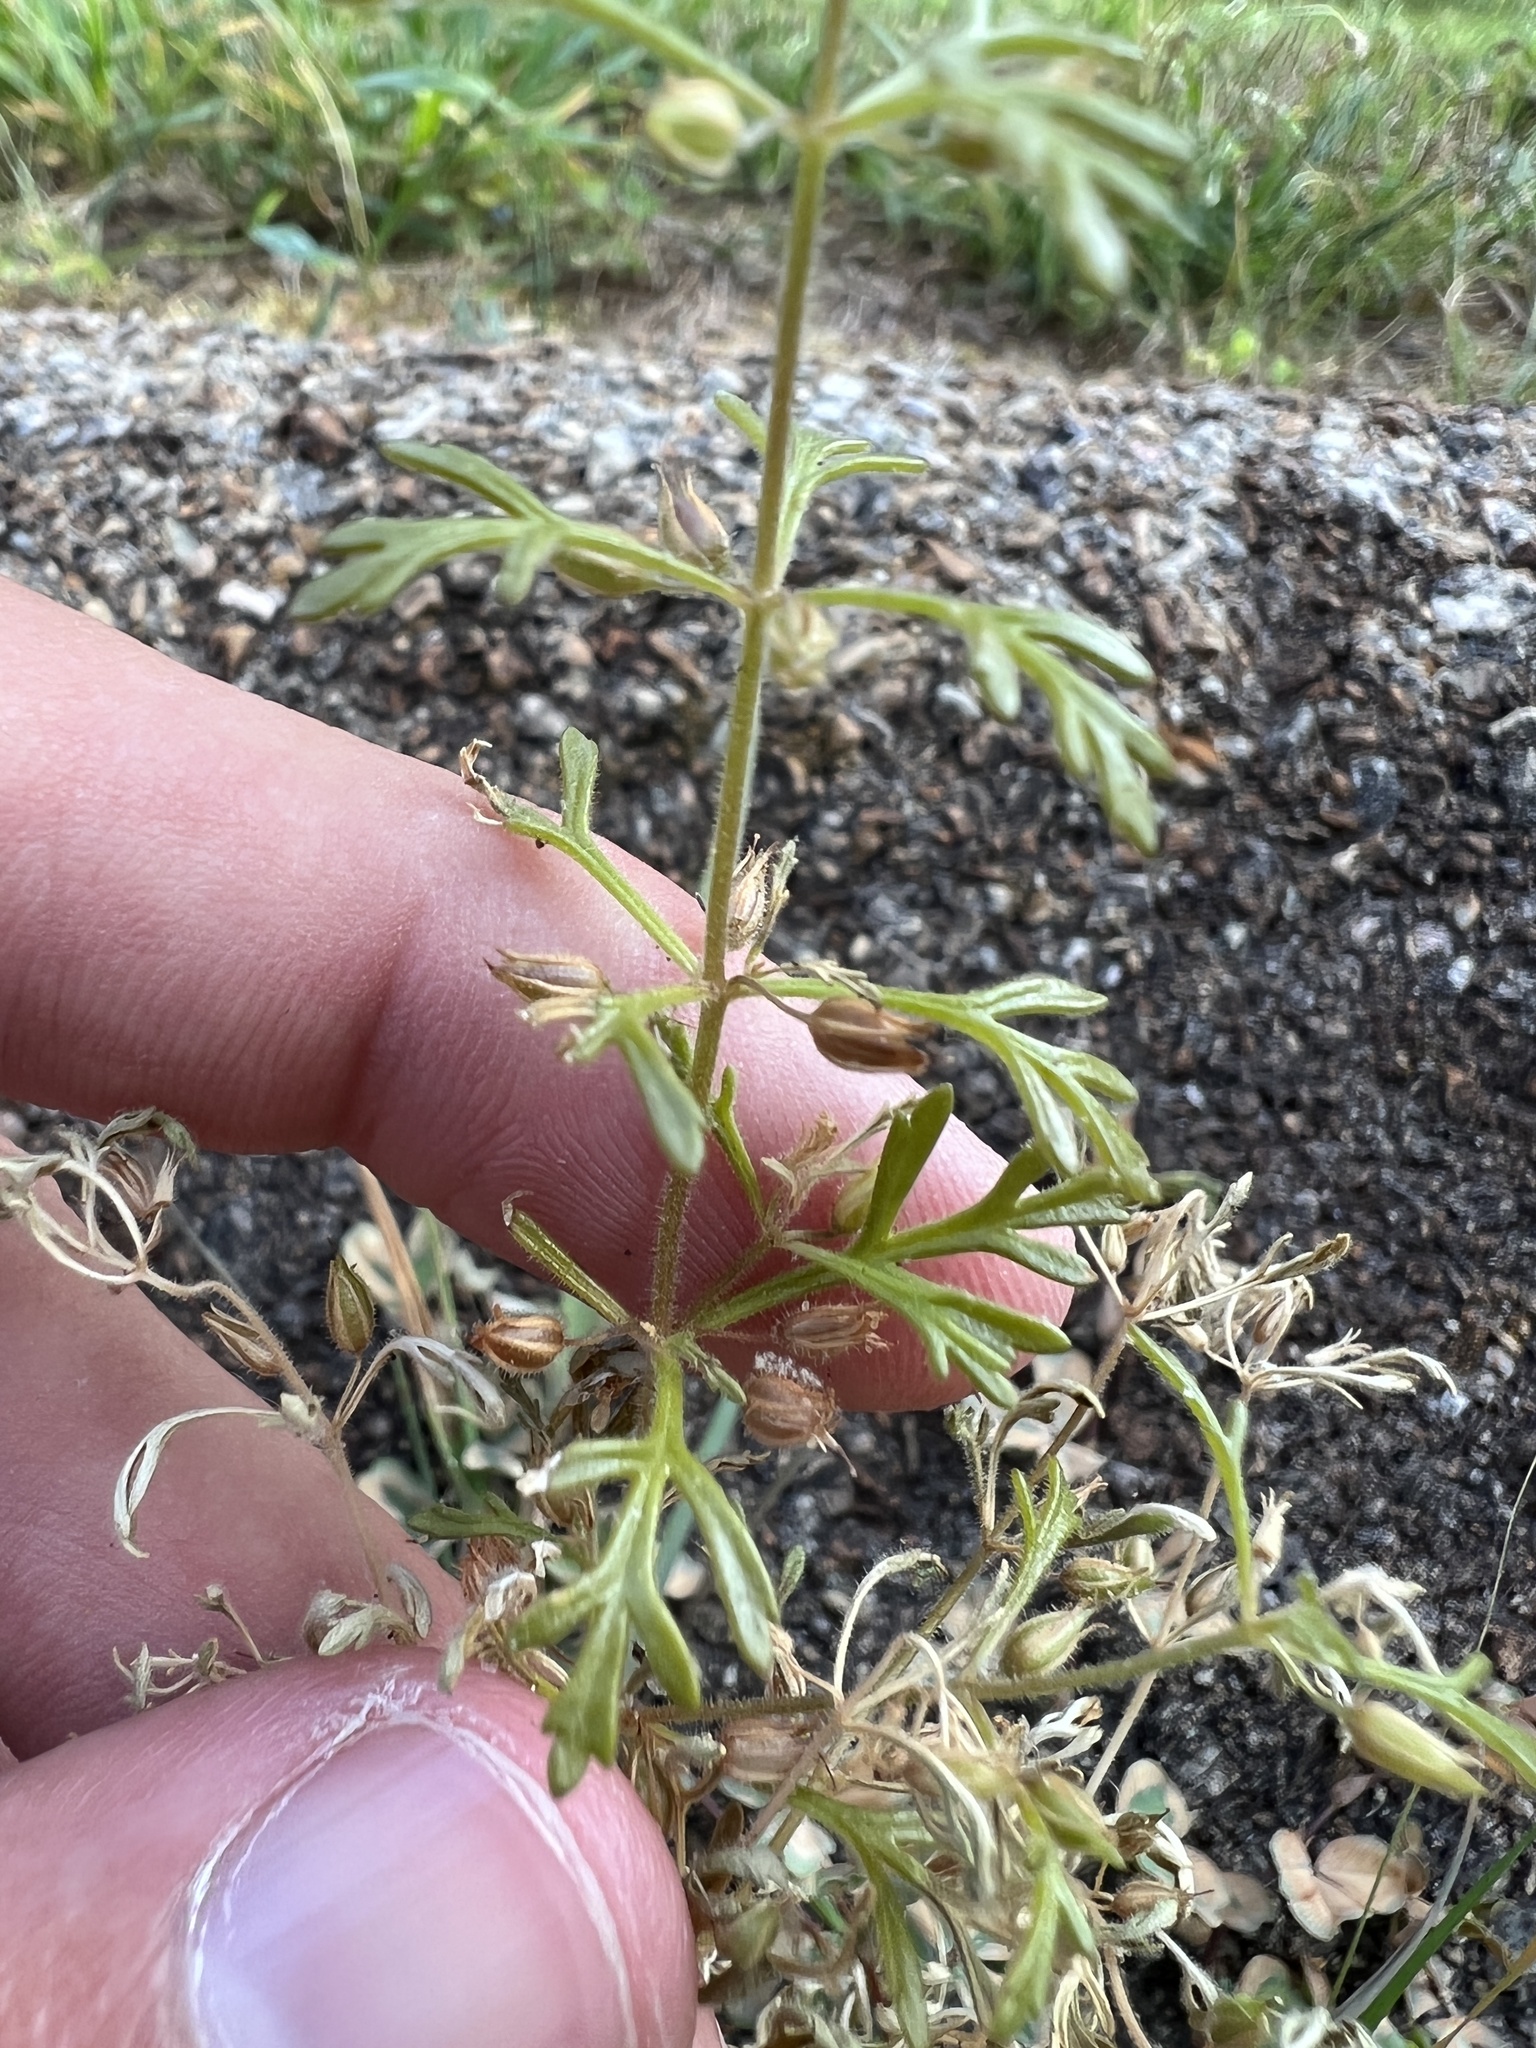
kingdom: Plantae
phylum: Tracheophyta
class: Magnoliopsida
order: Lamiales
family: Plantaginaceae
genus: Leucospora
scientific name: Leucospora multifida
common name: Narrow-leaf paleseed
